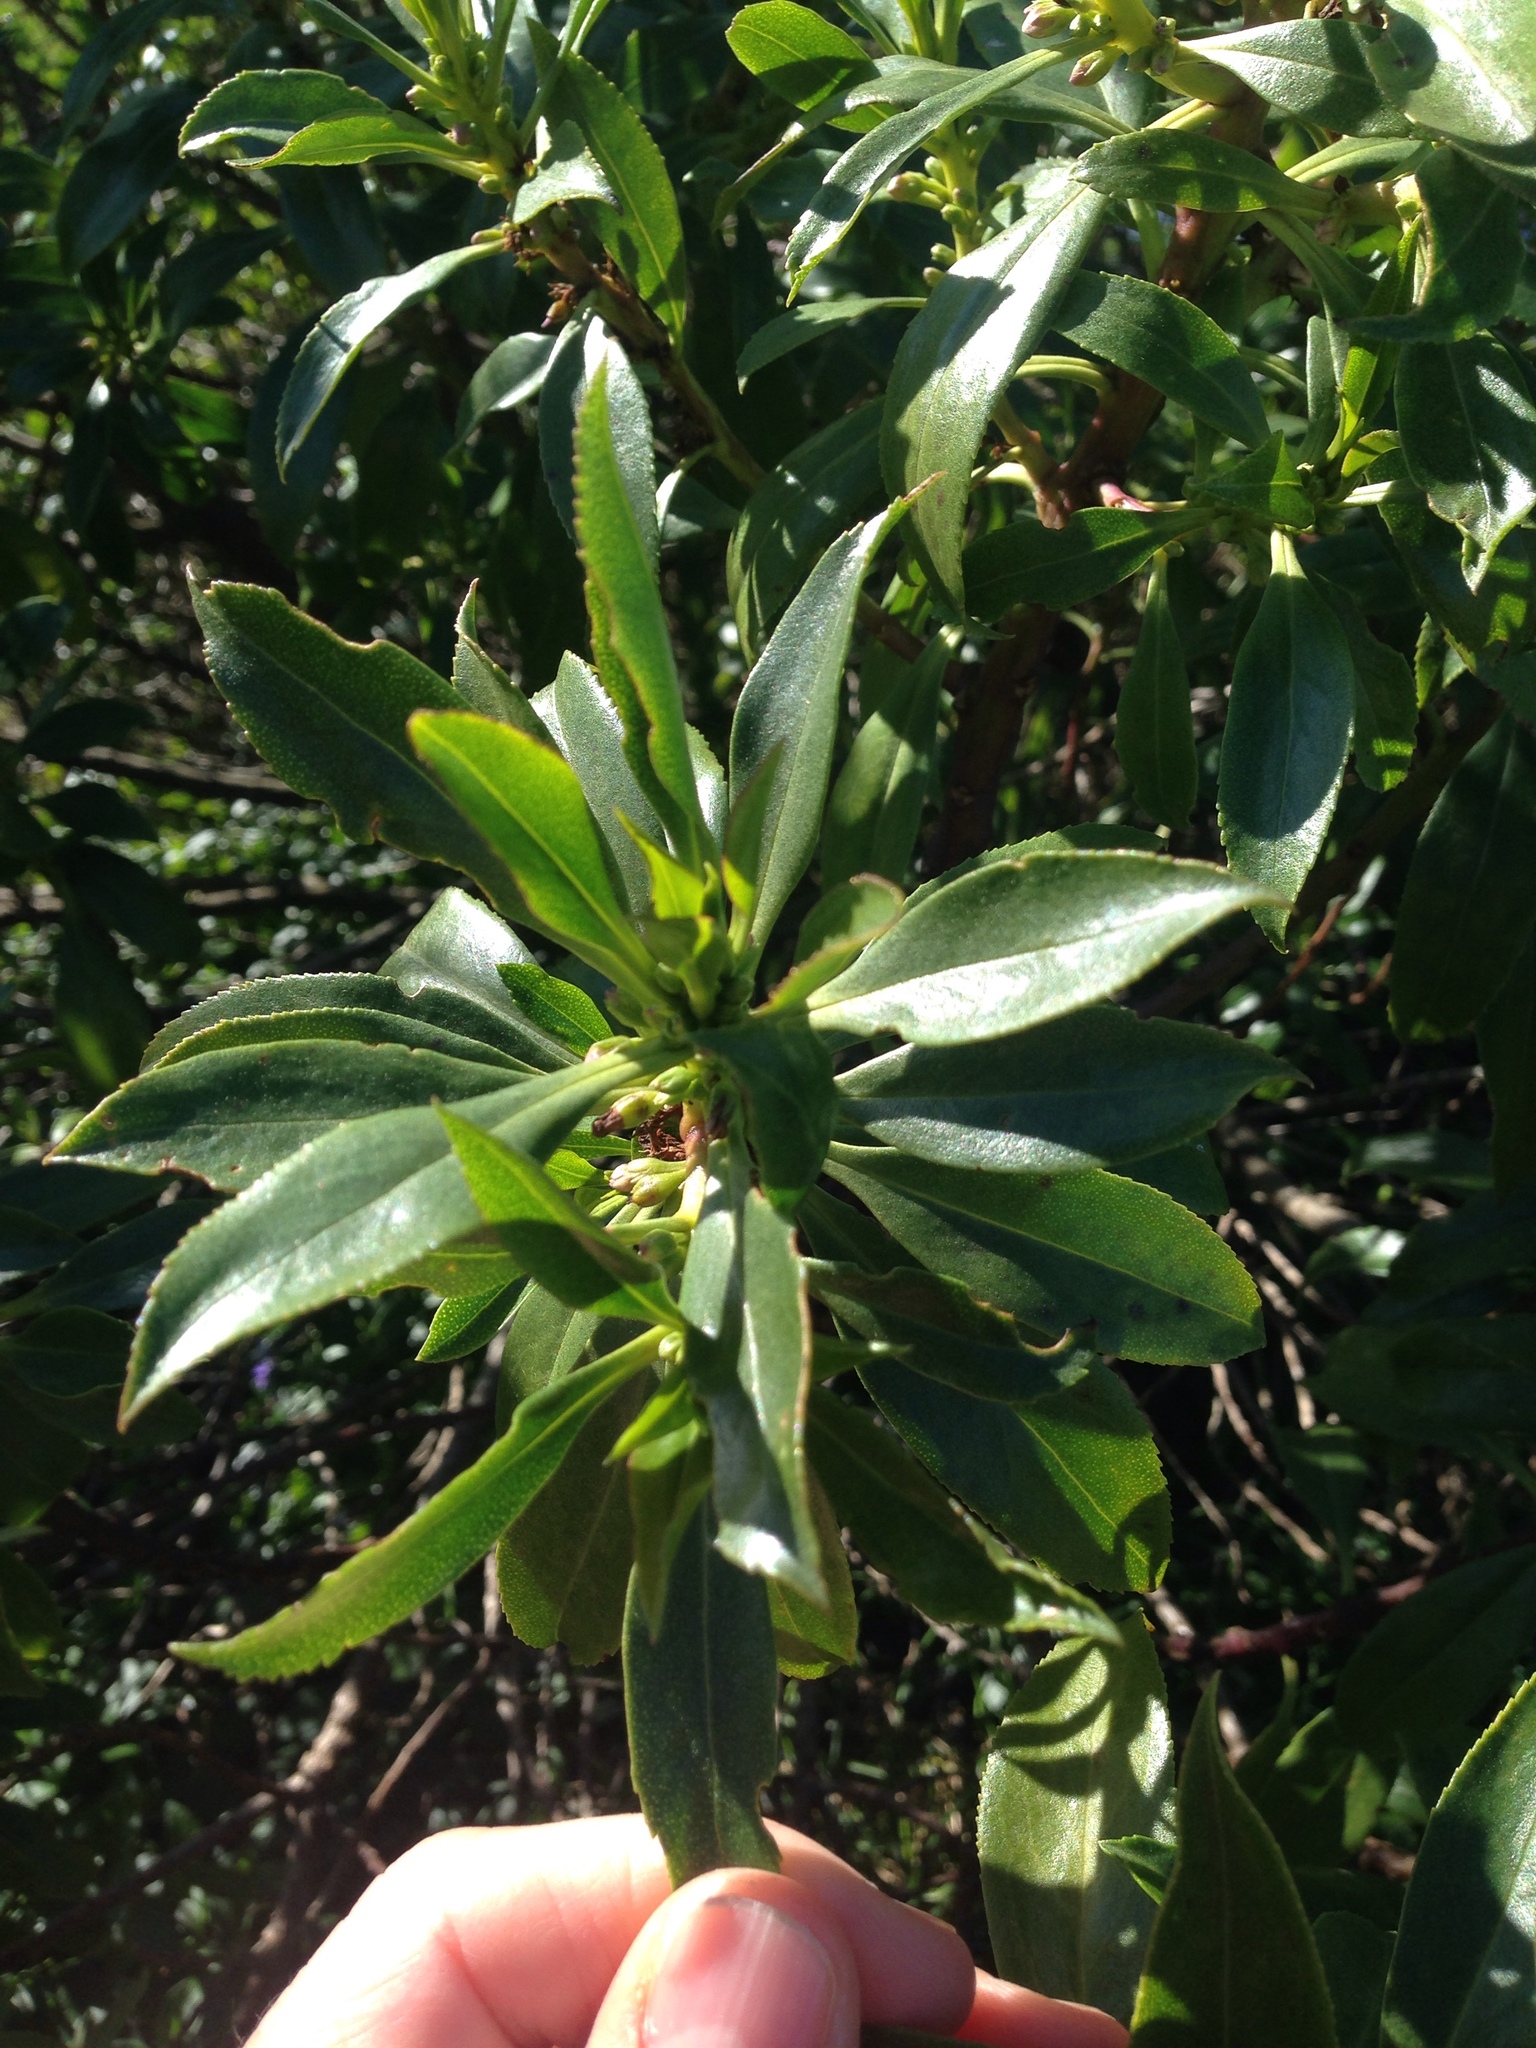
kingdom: Plantae
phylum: Tracheophyta
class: Magnoliopsida
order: Lamiales
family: Scrophulariaceae
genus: Myoporum
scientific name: Myoporum laetum
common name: Ngaio tree
